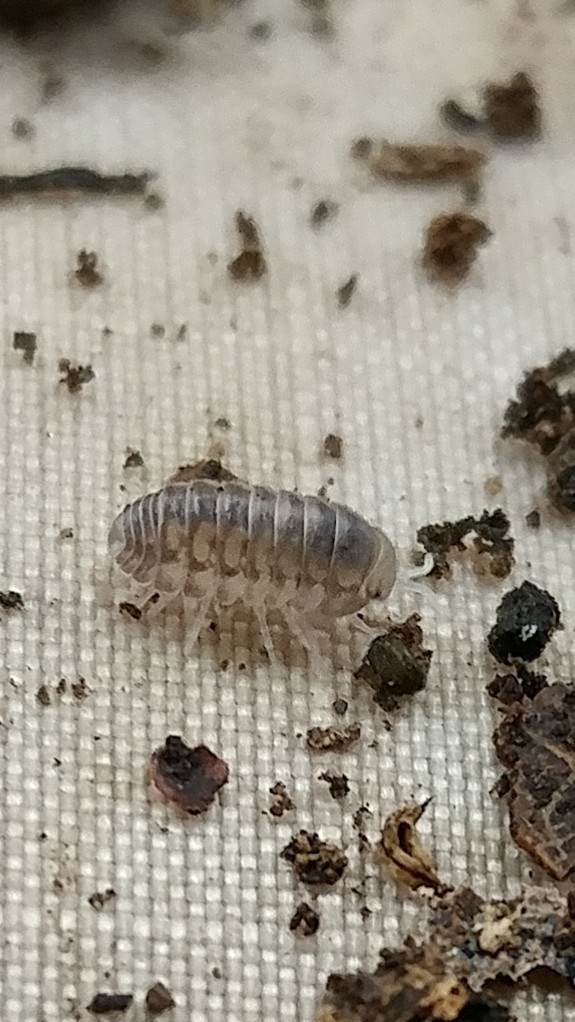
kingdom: Animalia
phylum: Arthropoda
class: Malacostraca
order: Isopoda
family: Armadillidae
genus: Venezillo
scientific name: Venezillo microphthalmus
